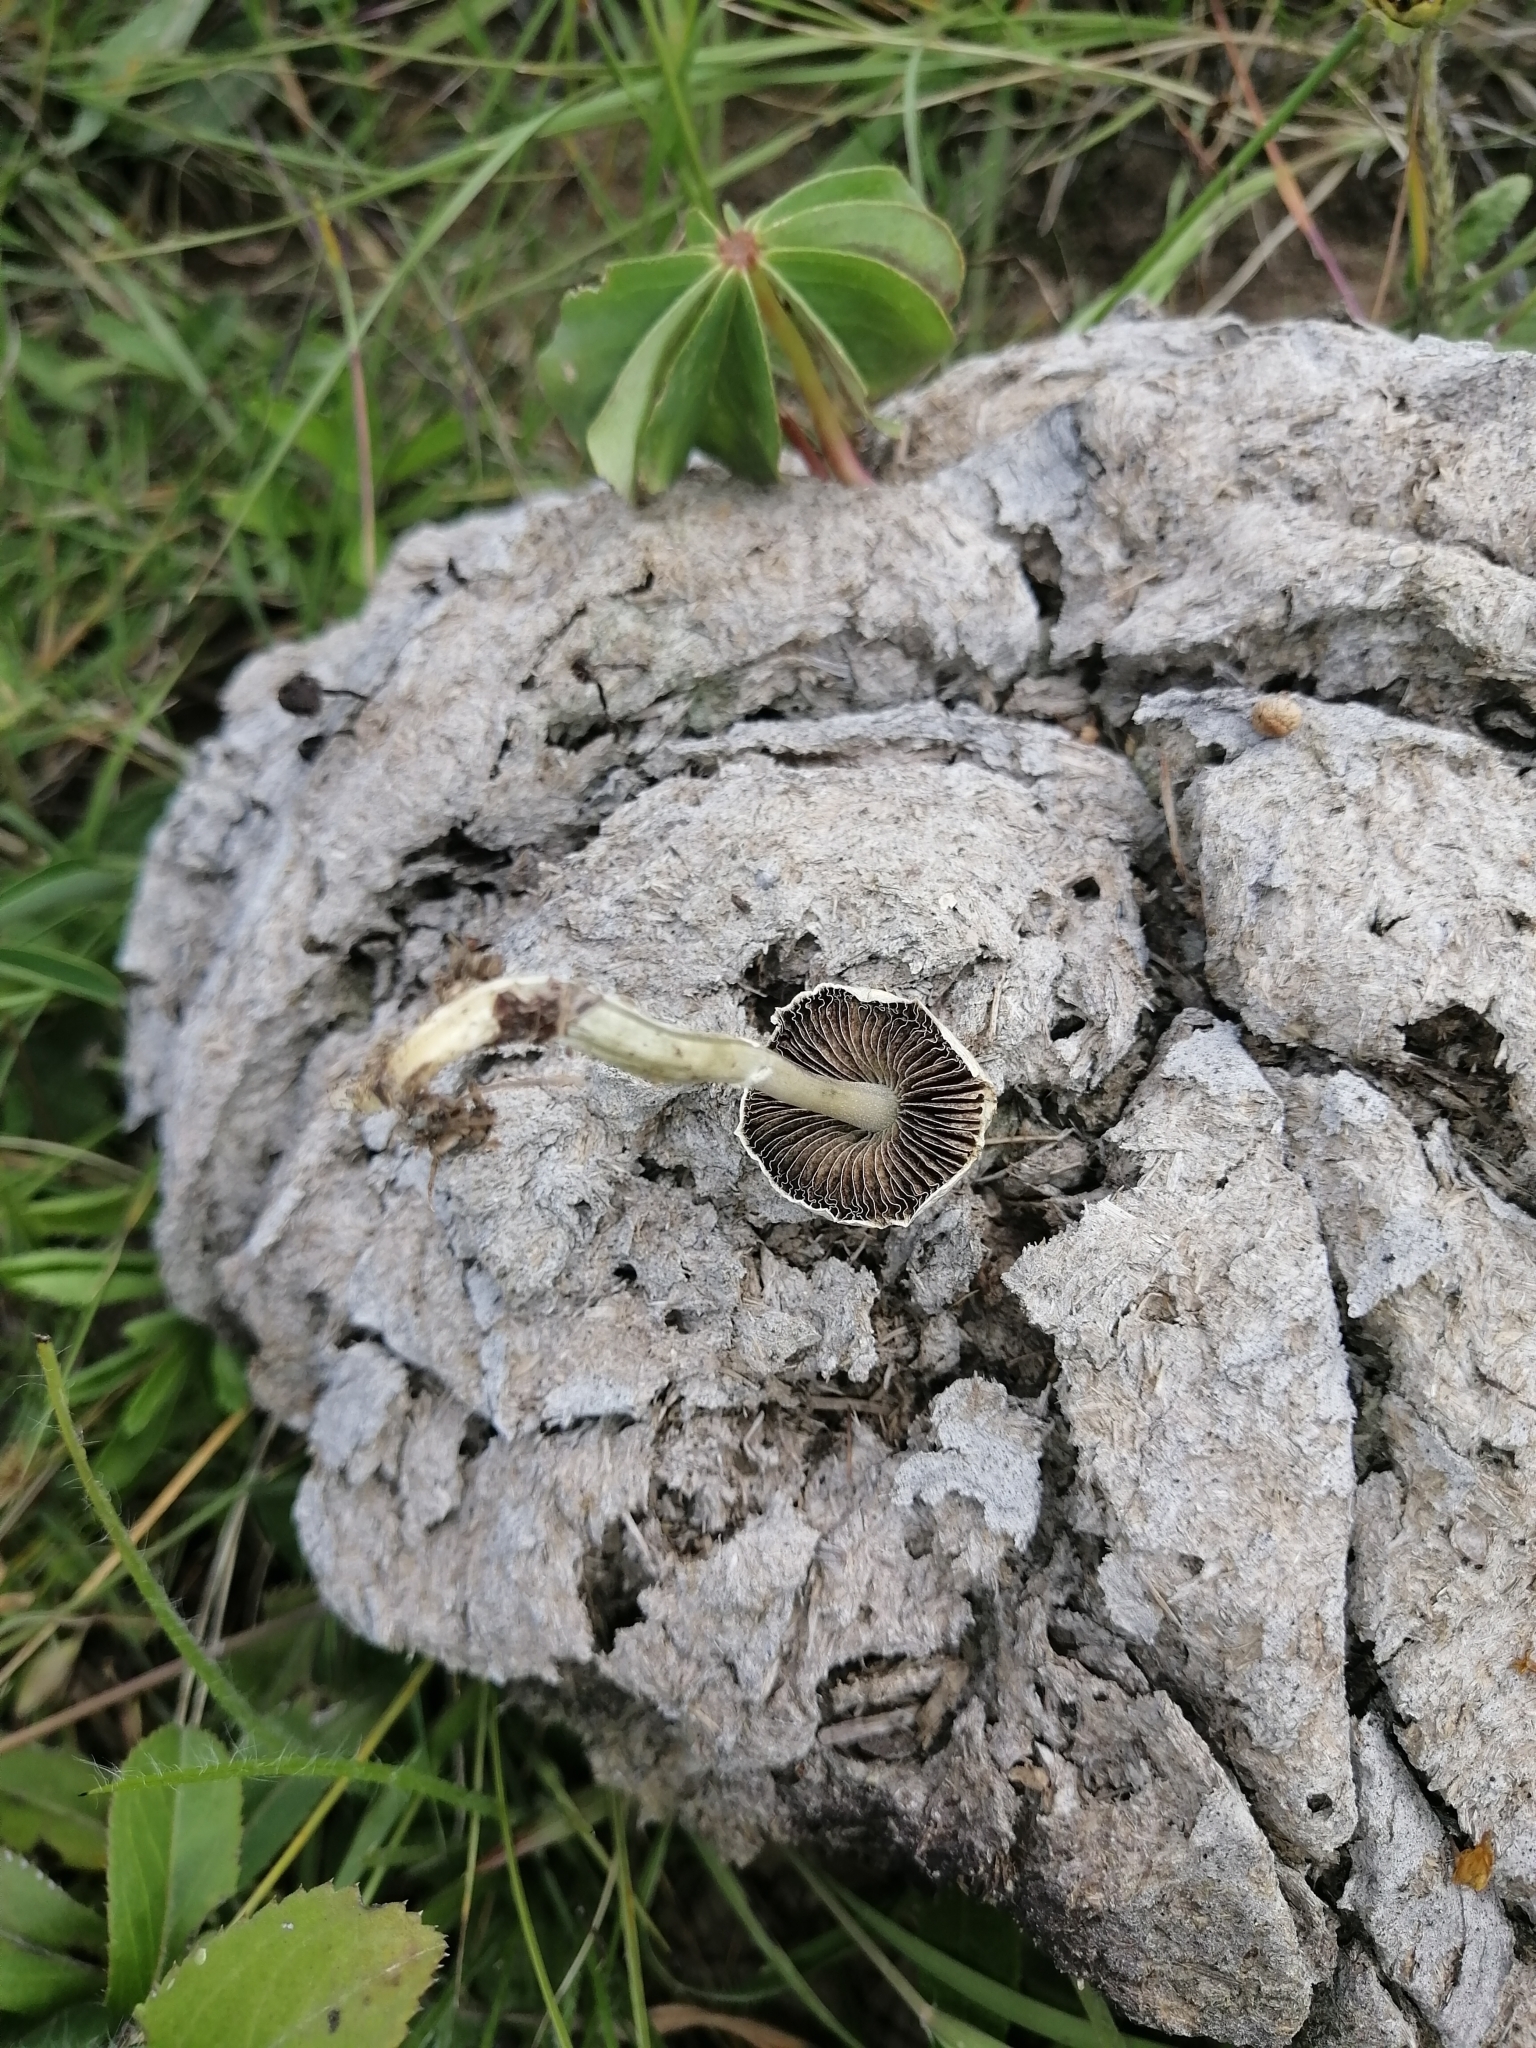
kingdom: Fungi
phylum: Basidiomycota
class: Agaricomycetes
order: Agaricales
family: Hymenogastraceae
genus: Psilocybe
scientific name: Psilocybe cubensis
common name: Golden brownie
